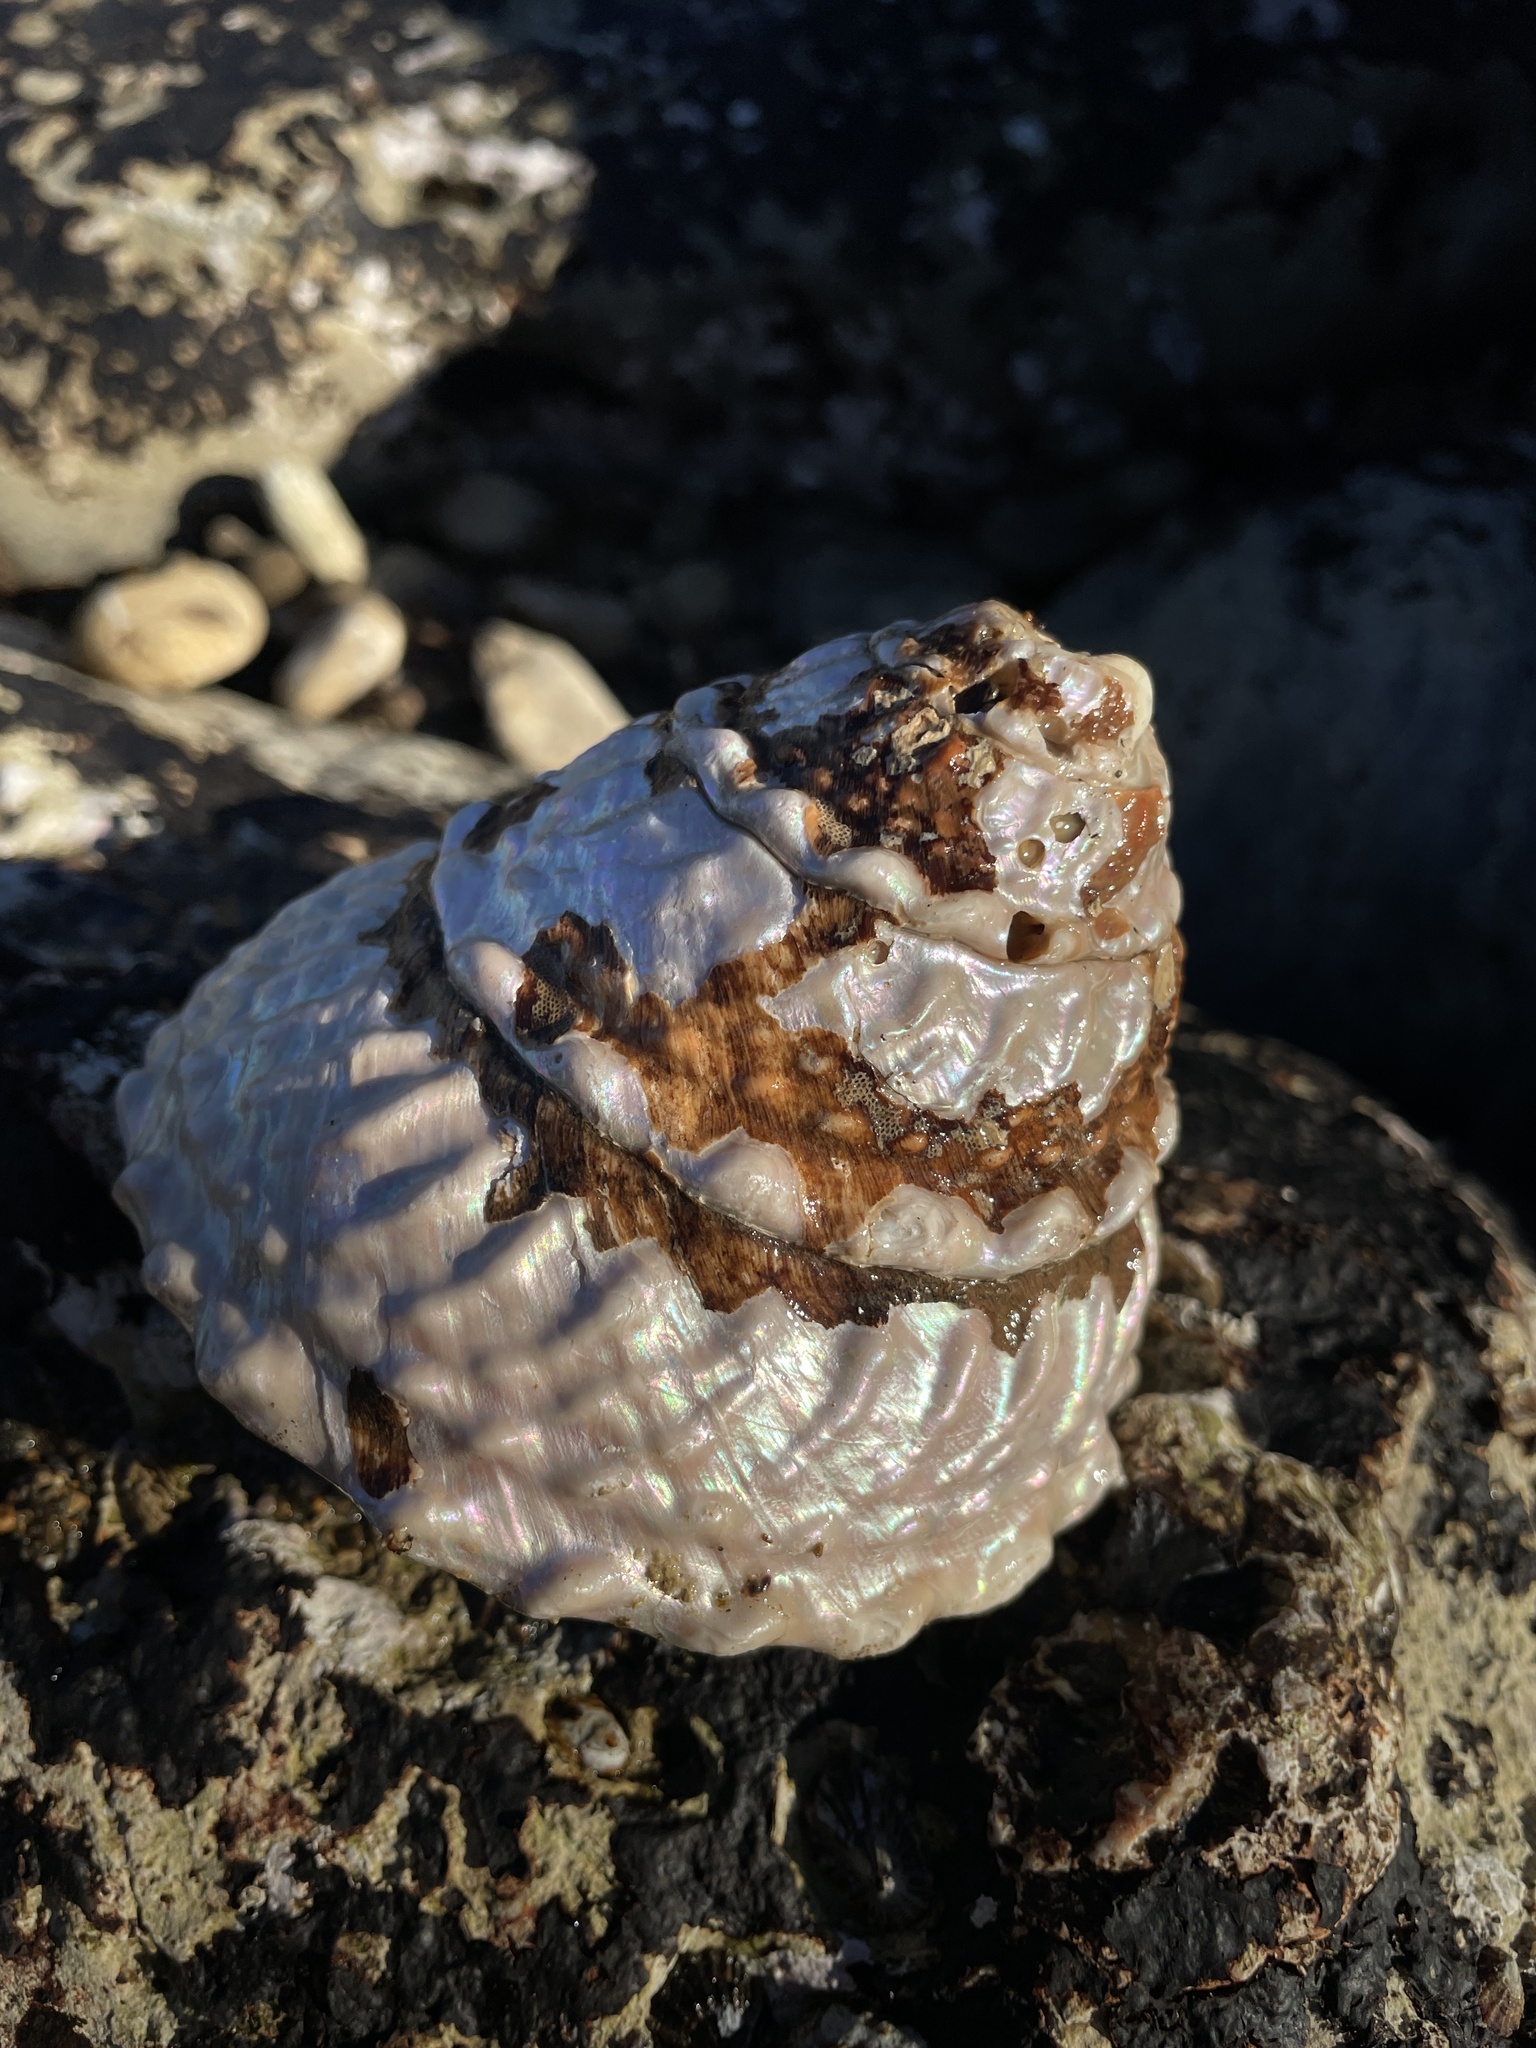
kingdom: Animalia
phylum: Mollusca
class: Gastropoda
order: Trochida
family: Turbinidae
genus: Megastraea
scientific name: Megastraea undosa
